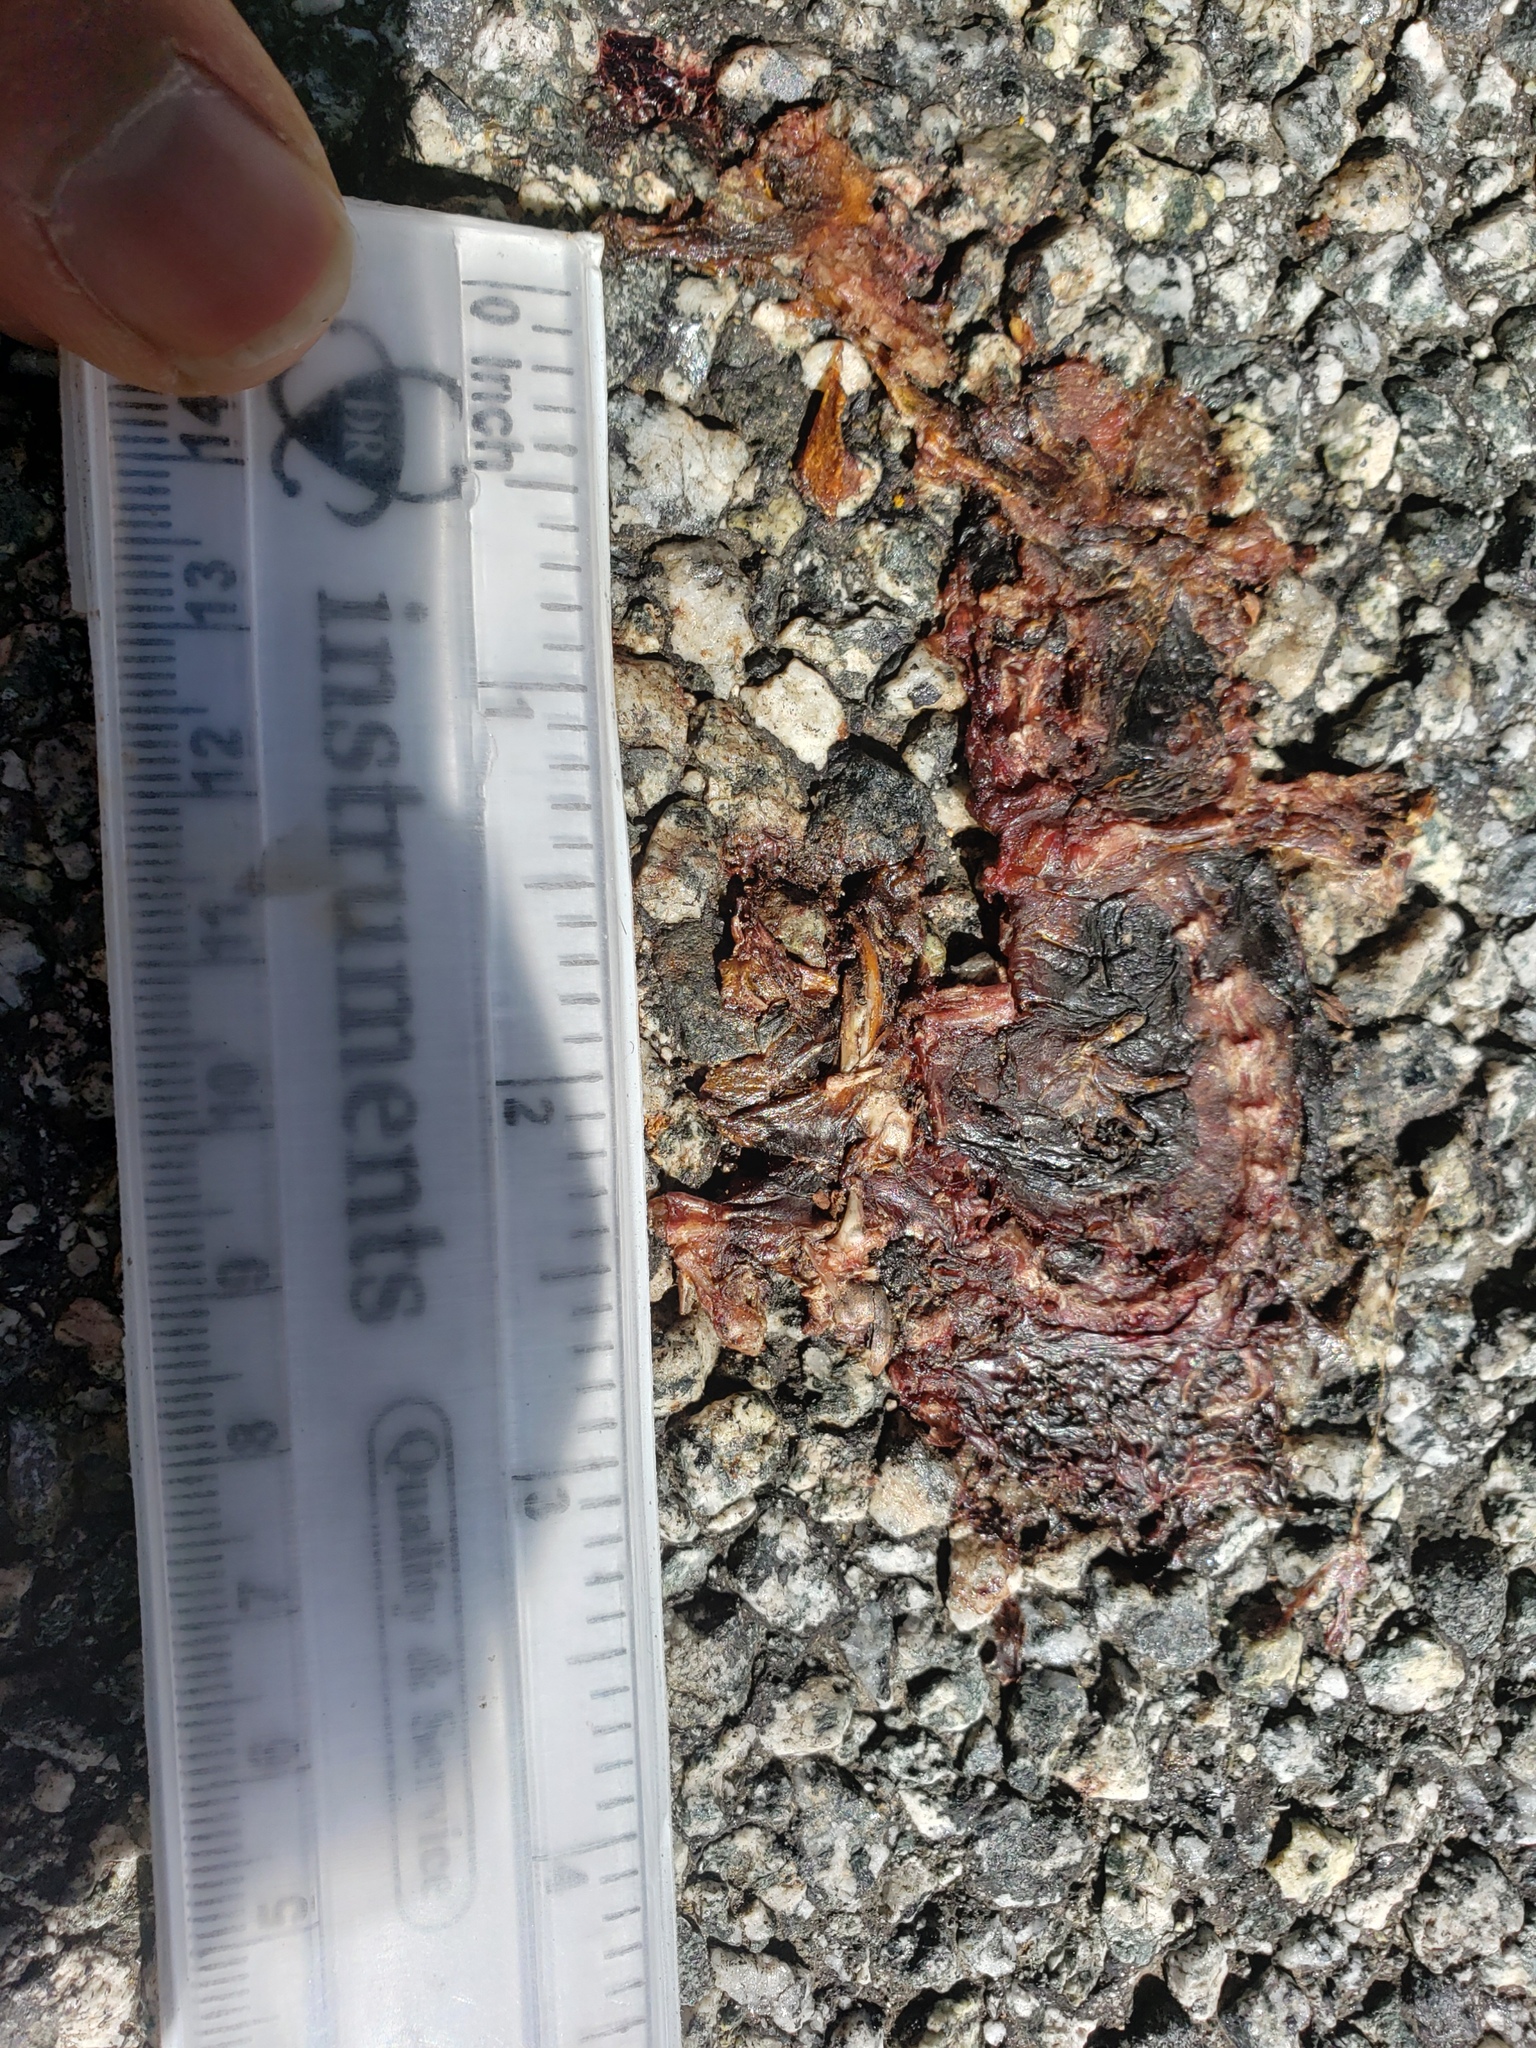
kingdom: Animalia
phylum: Chordata
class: Amphibia
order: Caudata
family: Salamandridae
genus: Taricha
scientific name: Taricha
